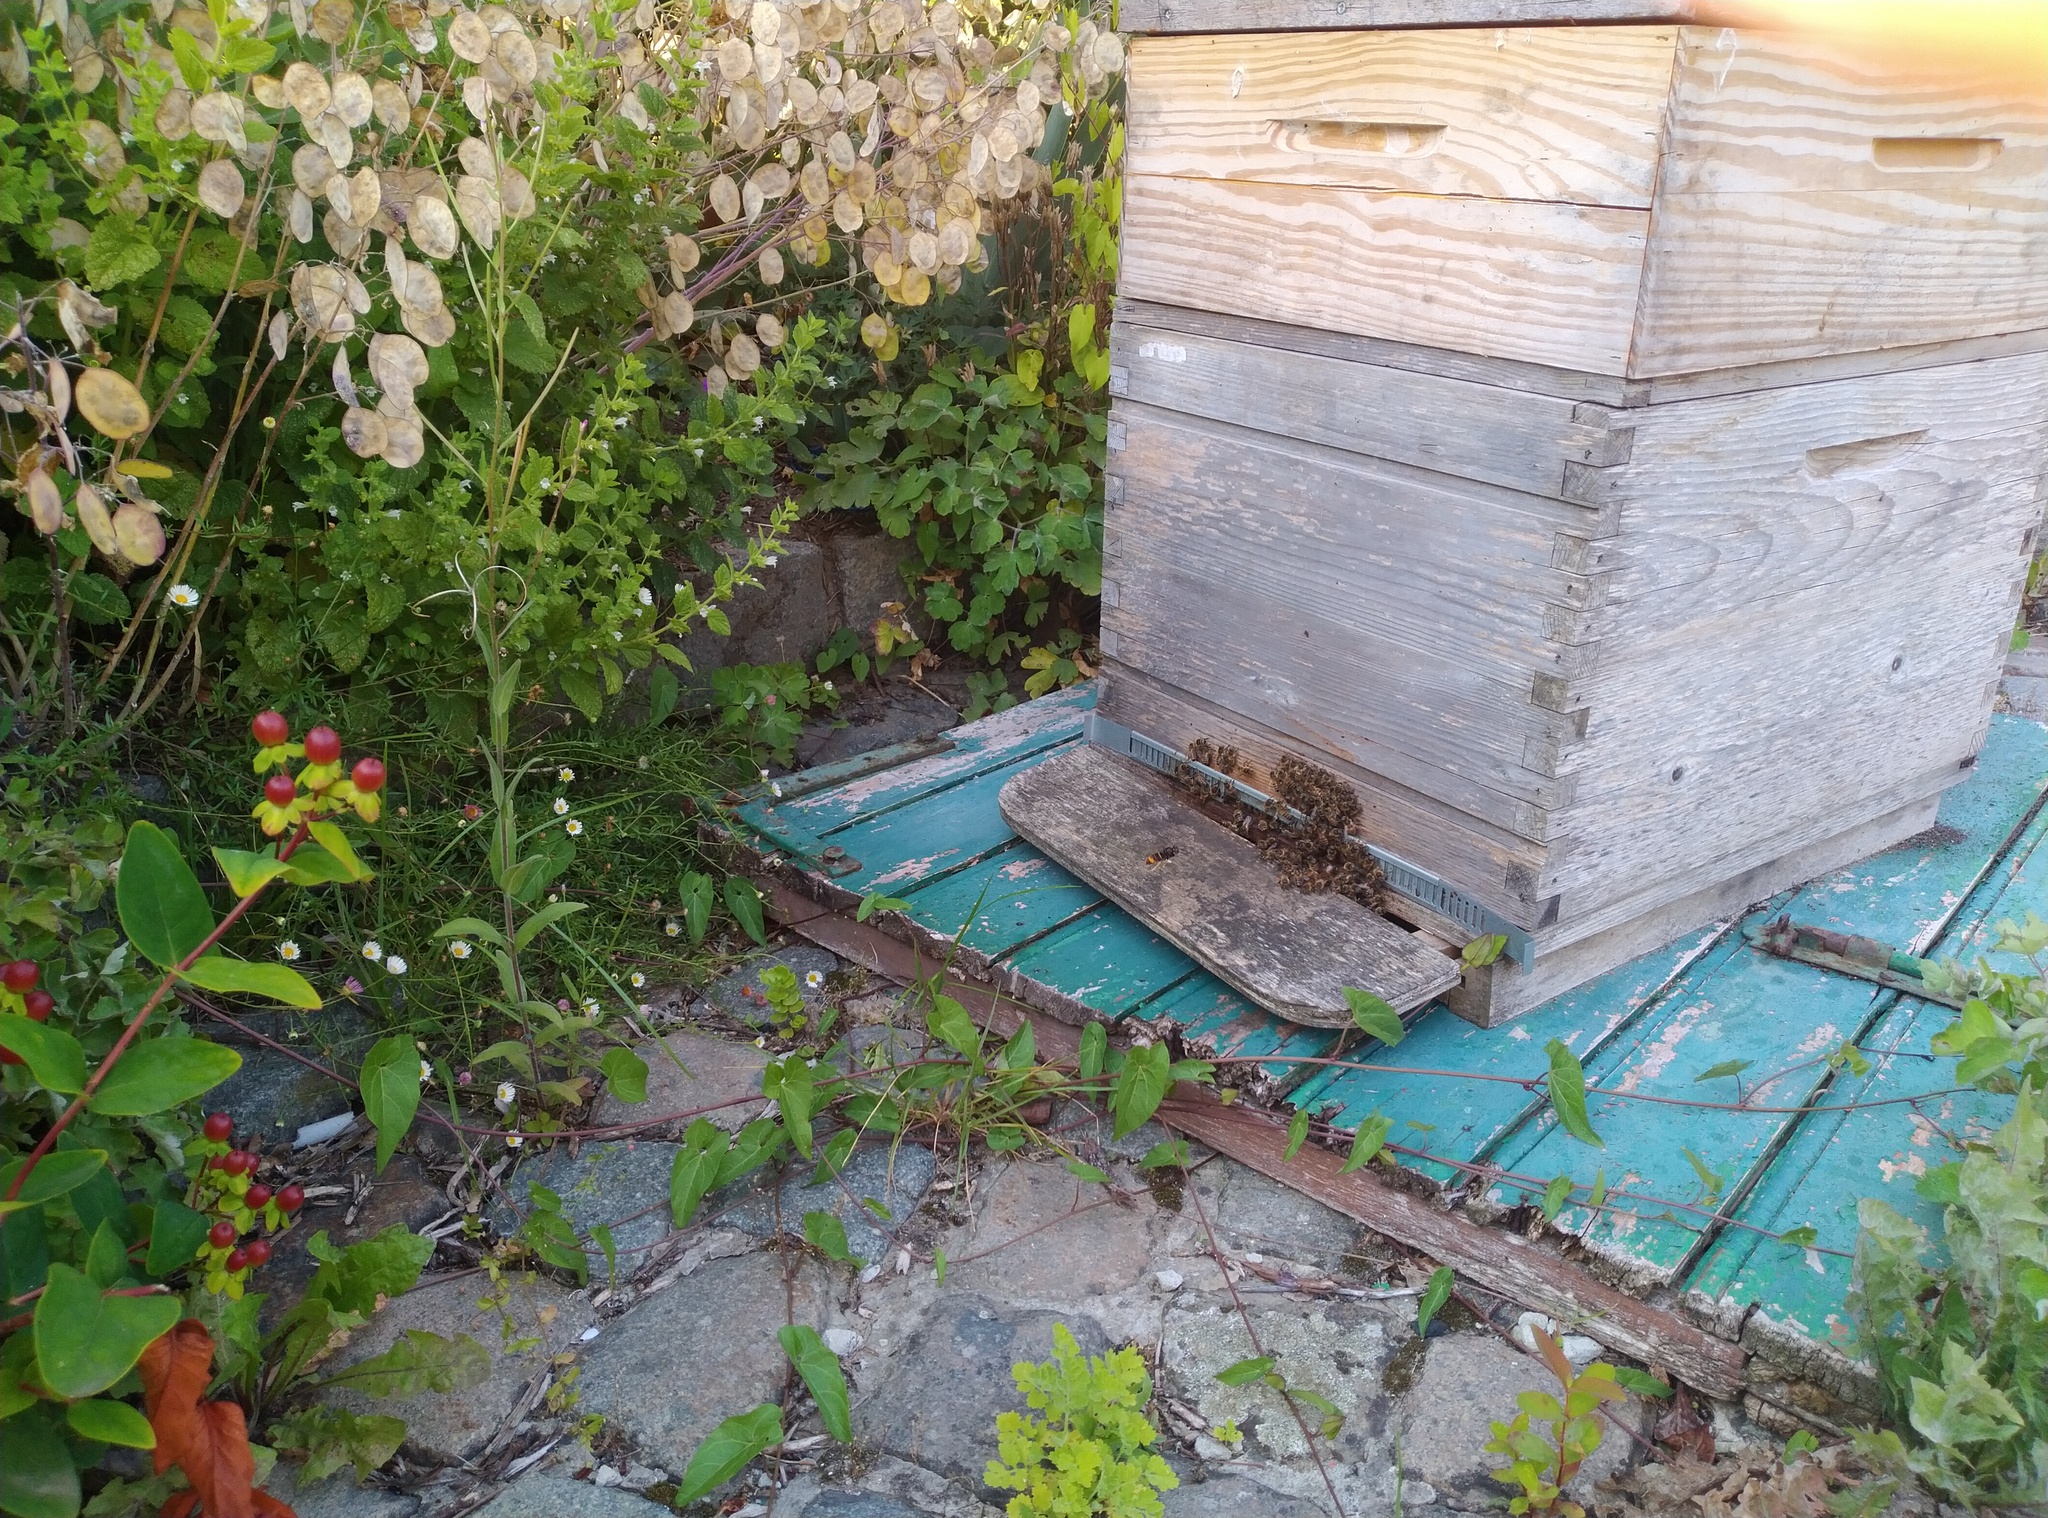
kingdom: Animalia
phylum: Arthropoda
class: Insecta
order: Hymenoptera
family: Vespidae
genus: Vespa
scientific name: Vespa velutina
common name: Asian hornet
